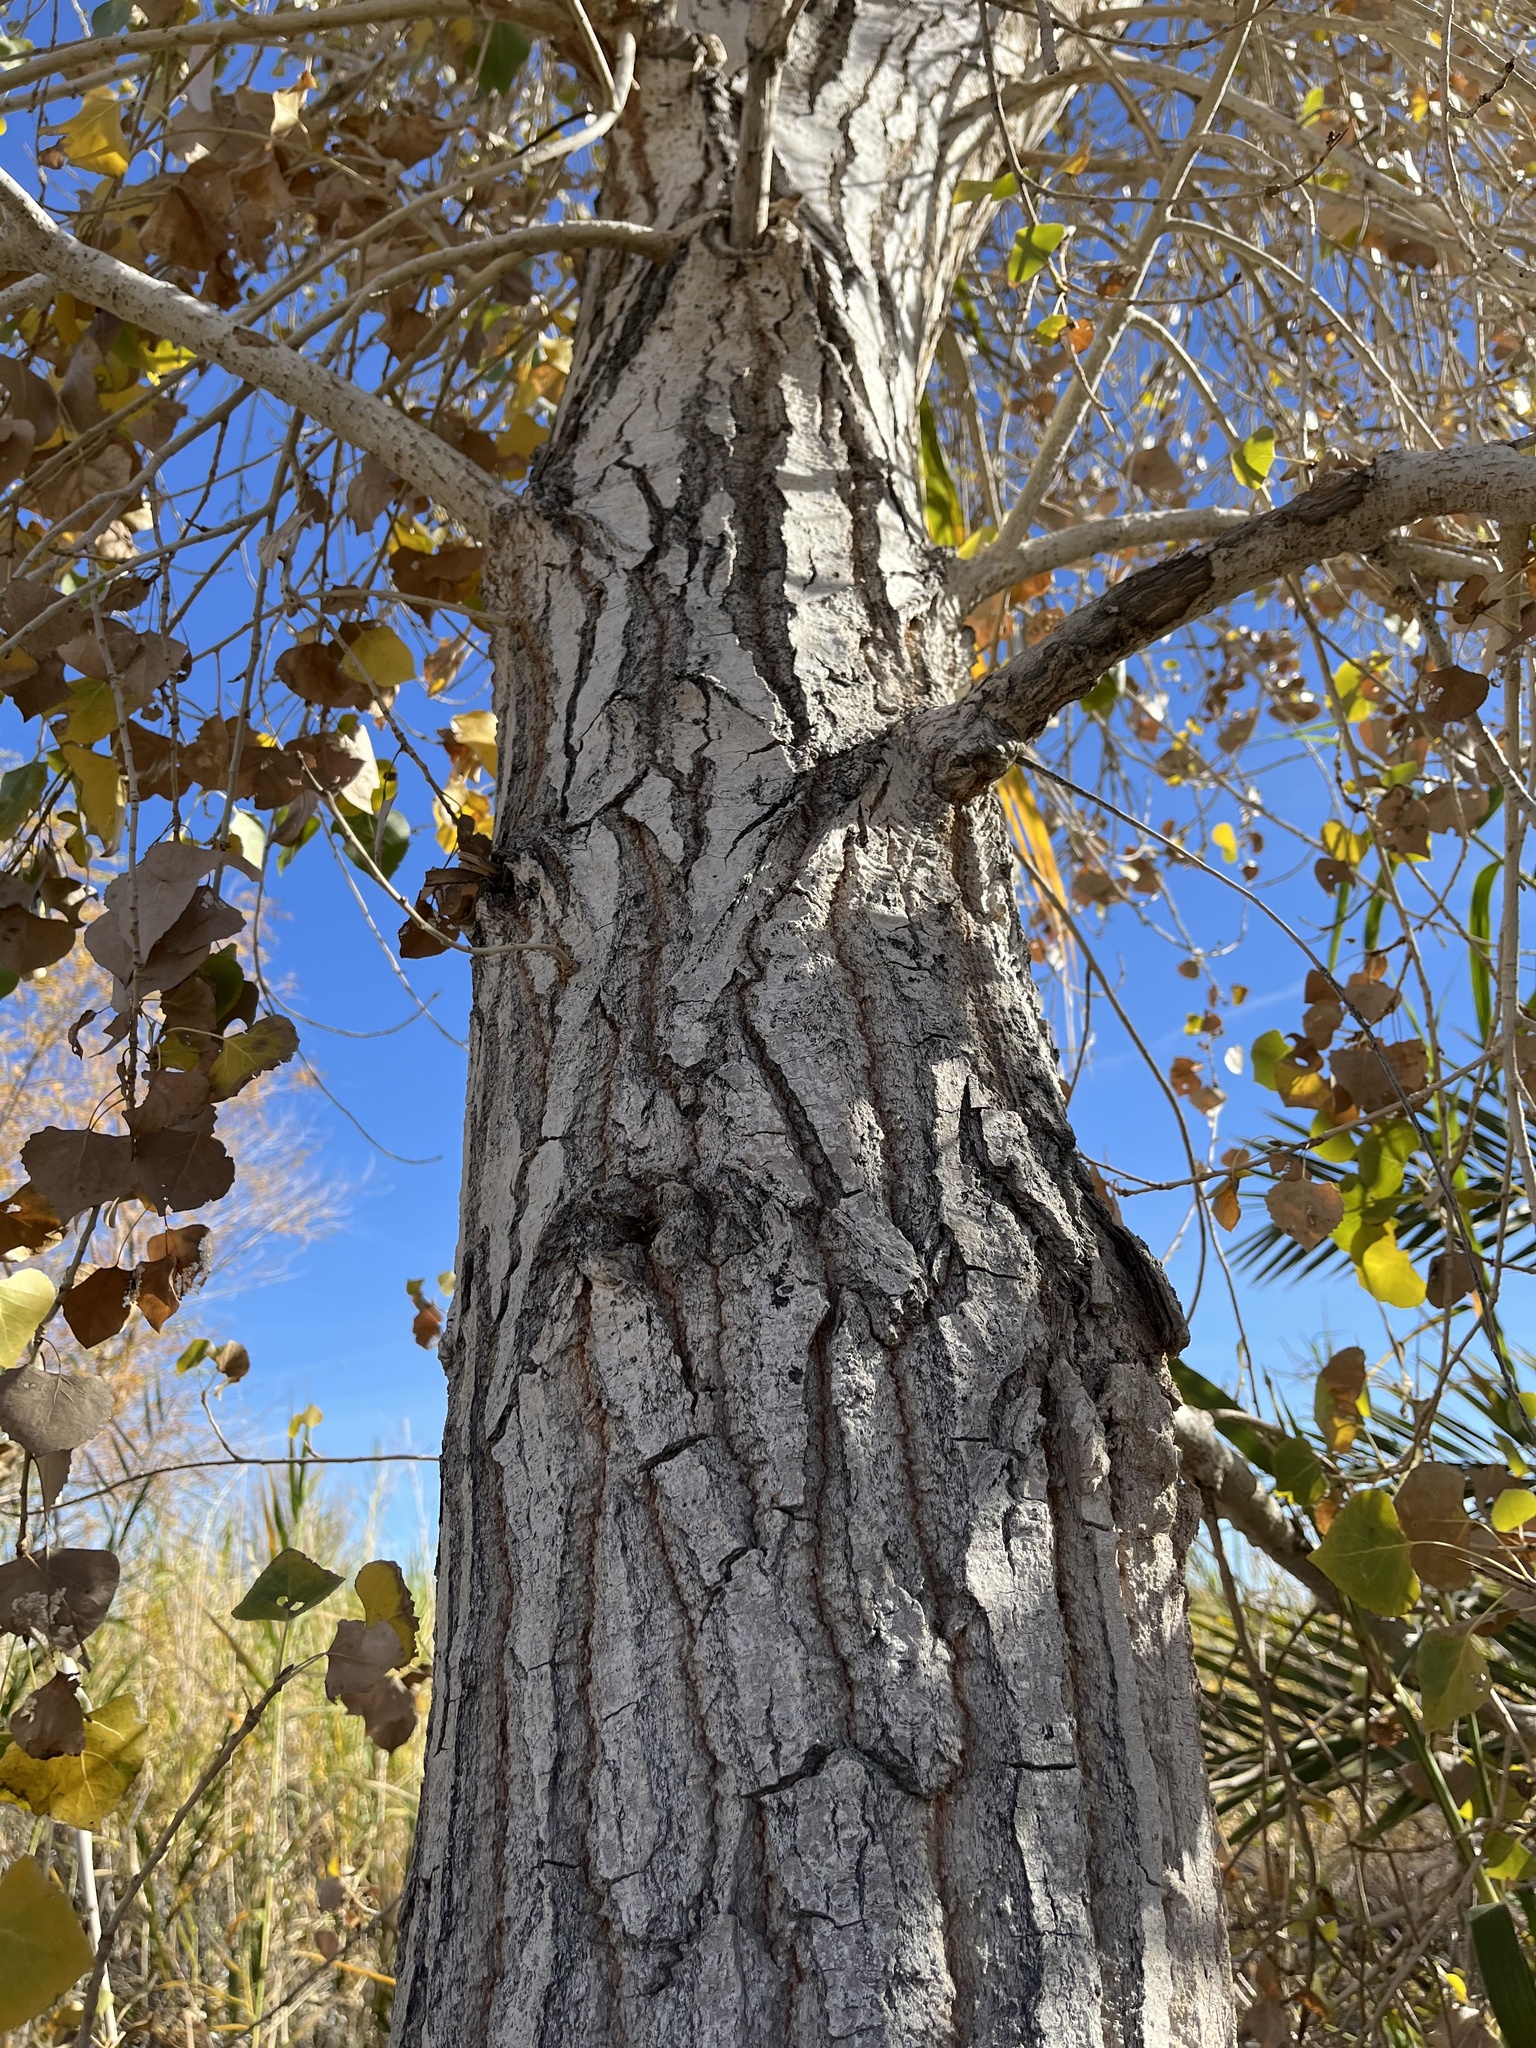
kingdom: Plantae
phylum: Tracheophyta
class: Magnoliopsida
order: Malpighiales
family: Salicaceae
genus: Populus
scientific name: Populus fremontii
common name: Fremont's cottonwood
